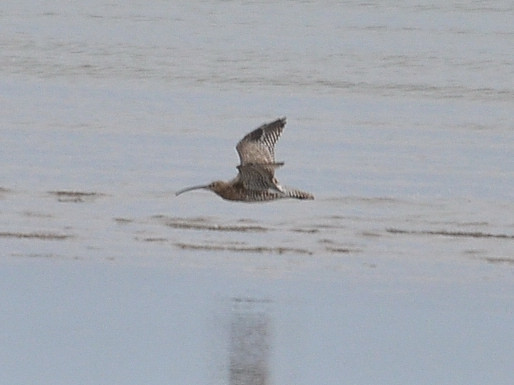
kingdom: Animalia
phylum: Chordata
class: Aves
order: Charadriiformes
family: Scolopacidae
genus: Numenius
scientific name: Numenius arquata
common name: Eurasian curlew
